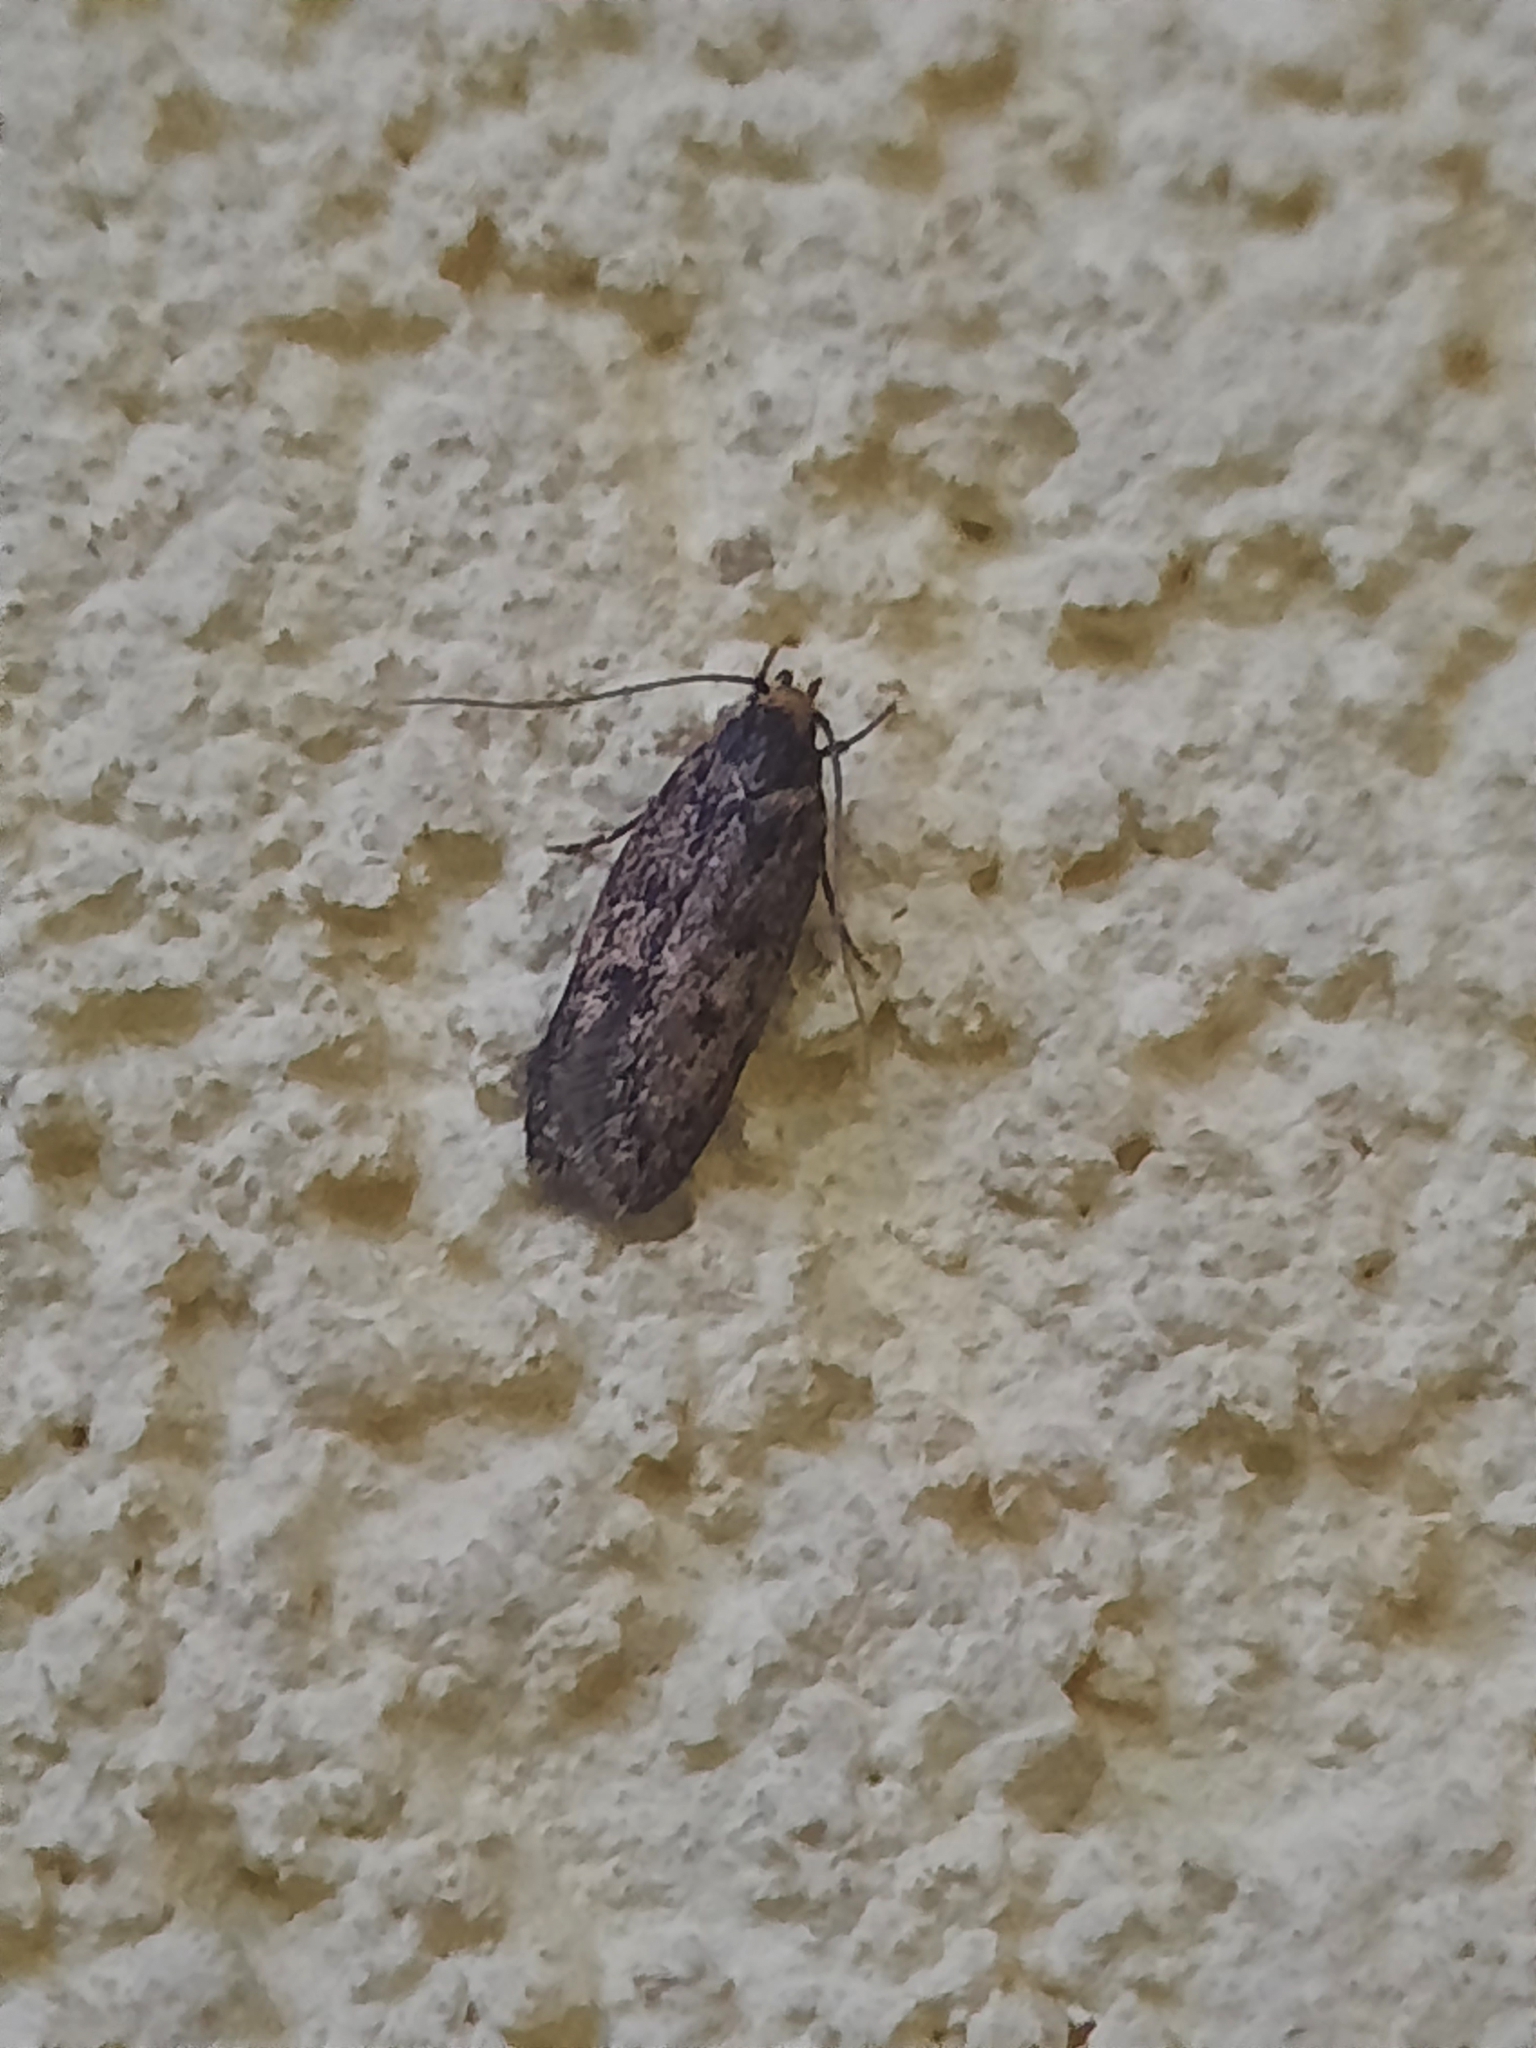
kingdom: Animalia
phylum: Arthropoda
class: Insecta
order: Lepidoptera
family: Oecophoridae
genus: Hofmannophila
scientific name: Hofmannophila pseudospretella
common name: Brown house moth
